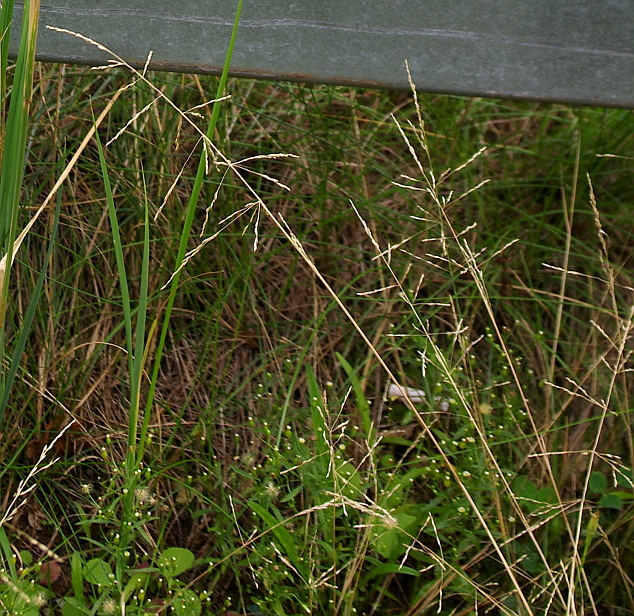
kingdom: Plantae
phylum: Tracheophyta
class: Liliopsida
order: Poales
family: Poaceae
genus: Puccinellia
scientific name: Puccinellia distans
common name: Weeping alkaligrass
